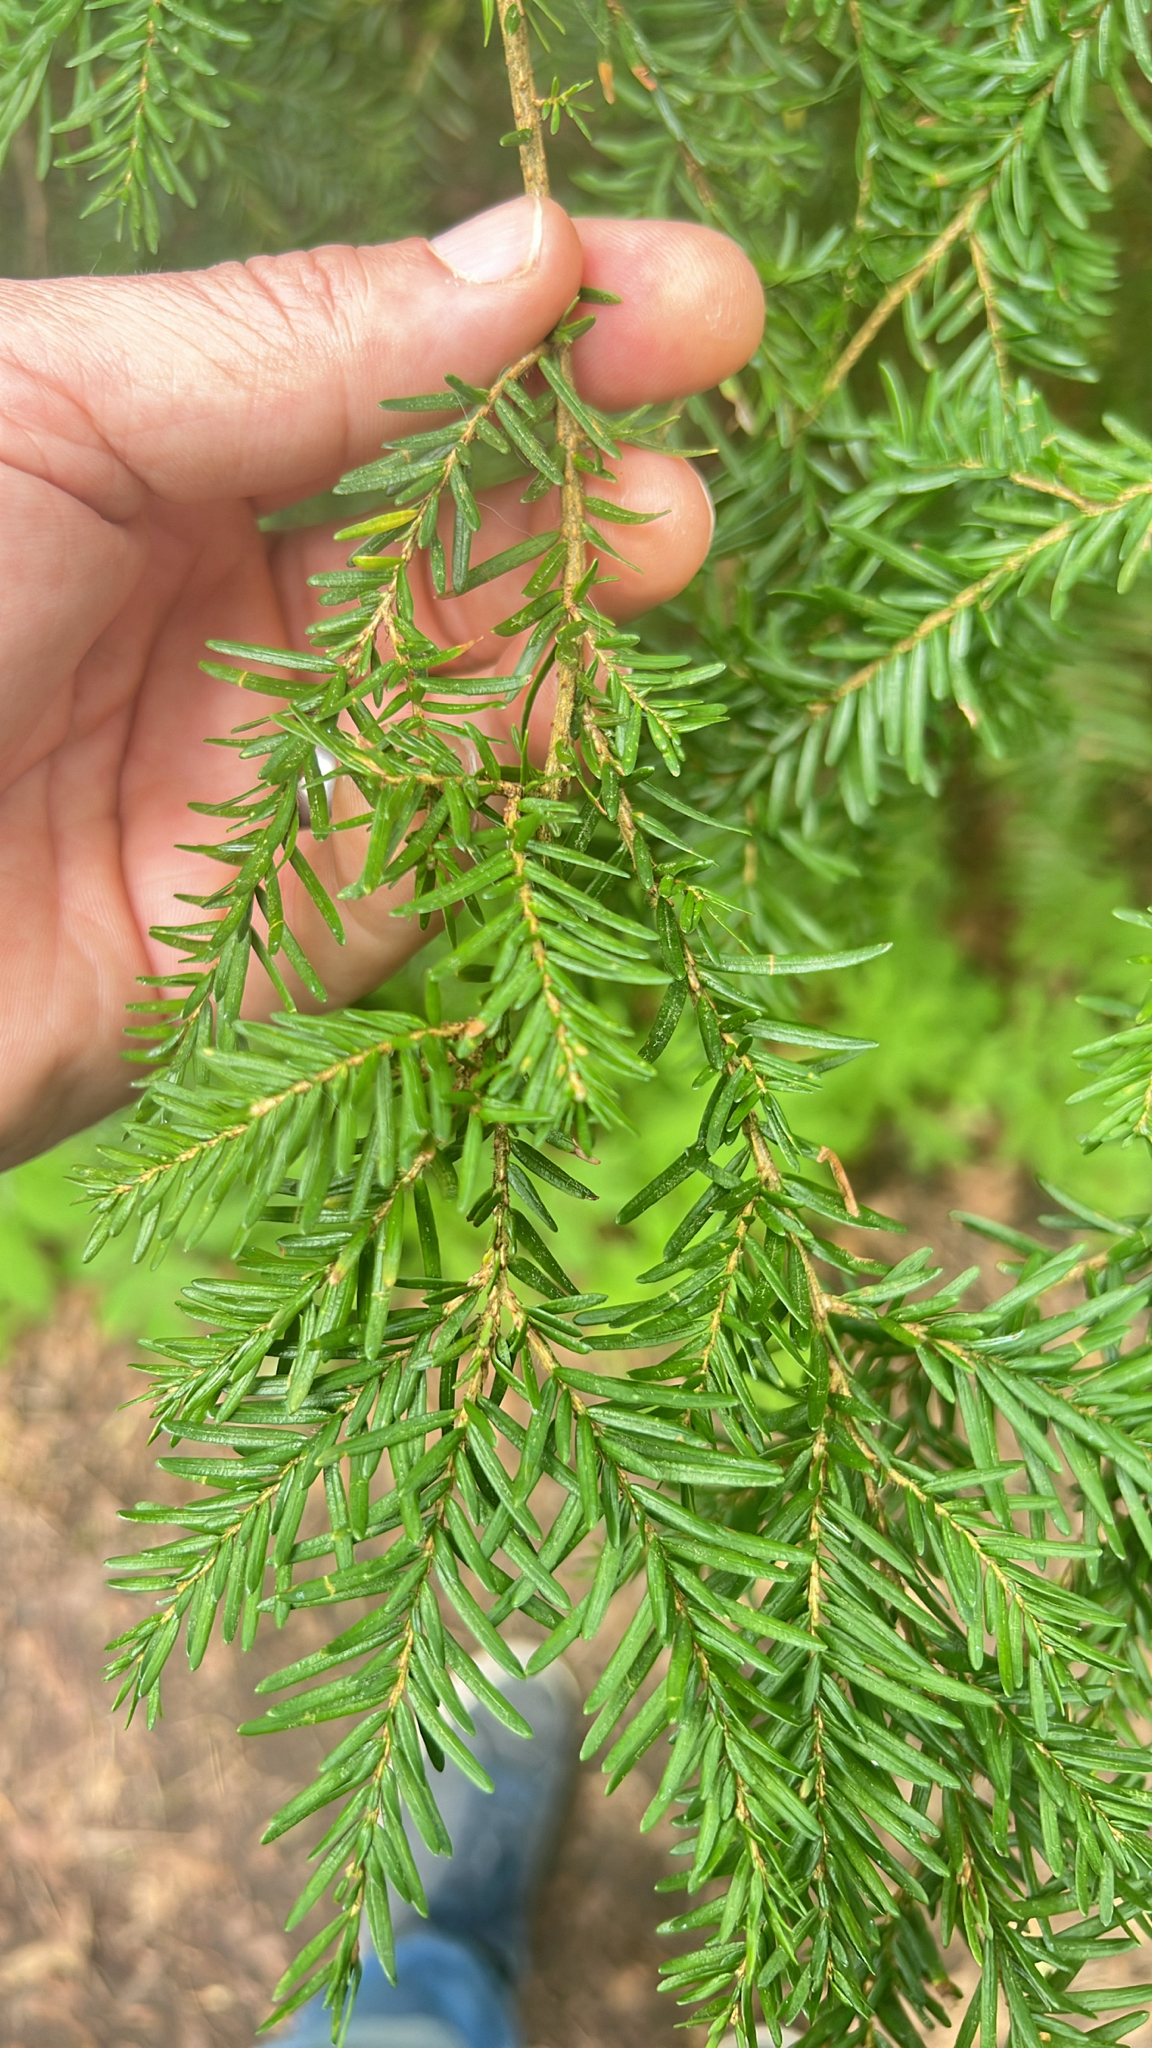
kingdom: Plantae
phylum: Tracheophyta
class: Pinopsida
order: Pinales
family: Pinaceae
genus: Tsuga
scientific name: Tsuga heterophylla
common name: Western hemlock
